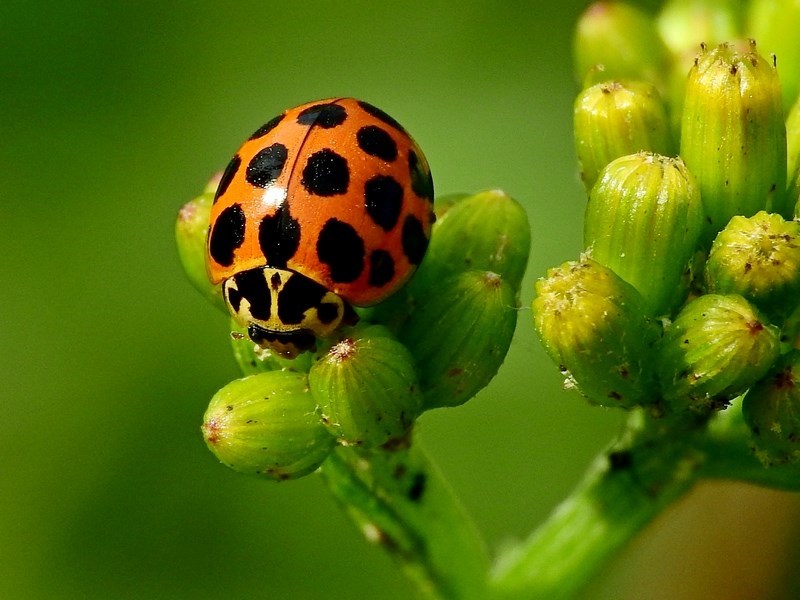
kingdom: Animalia
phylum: Arthropoda
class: Insecta
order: Coleoptera
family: Coccinellidae
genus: Harmonia
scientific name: Harmonia conformis
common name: Common spotted ladybird beetle
